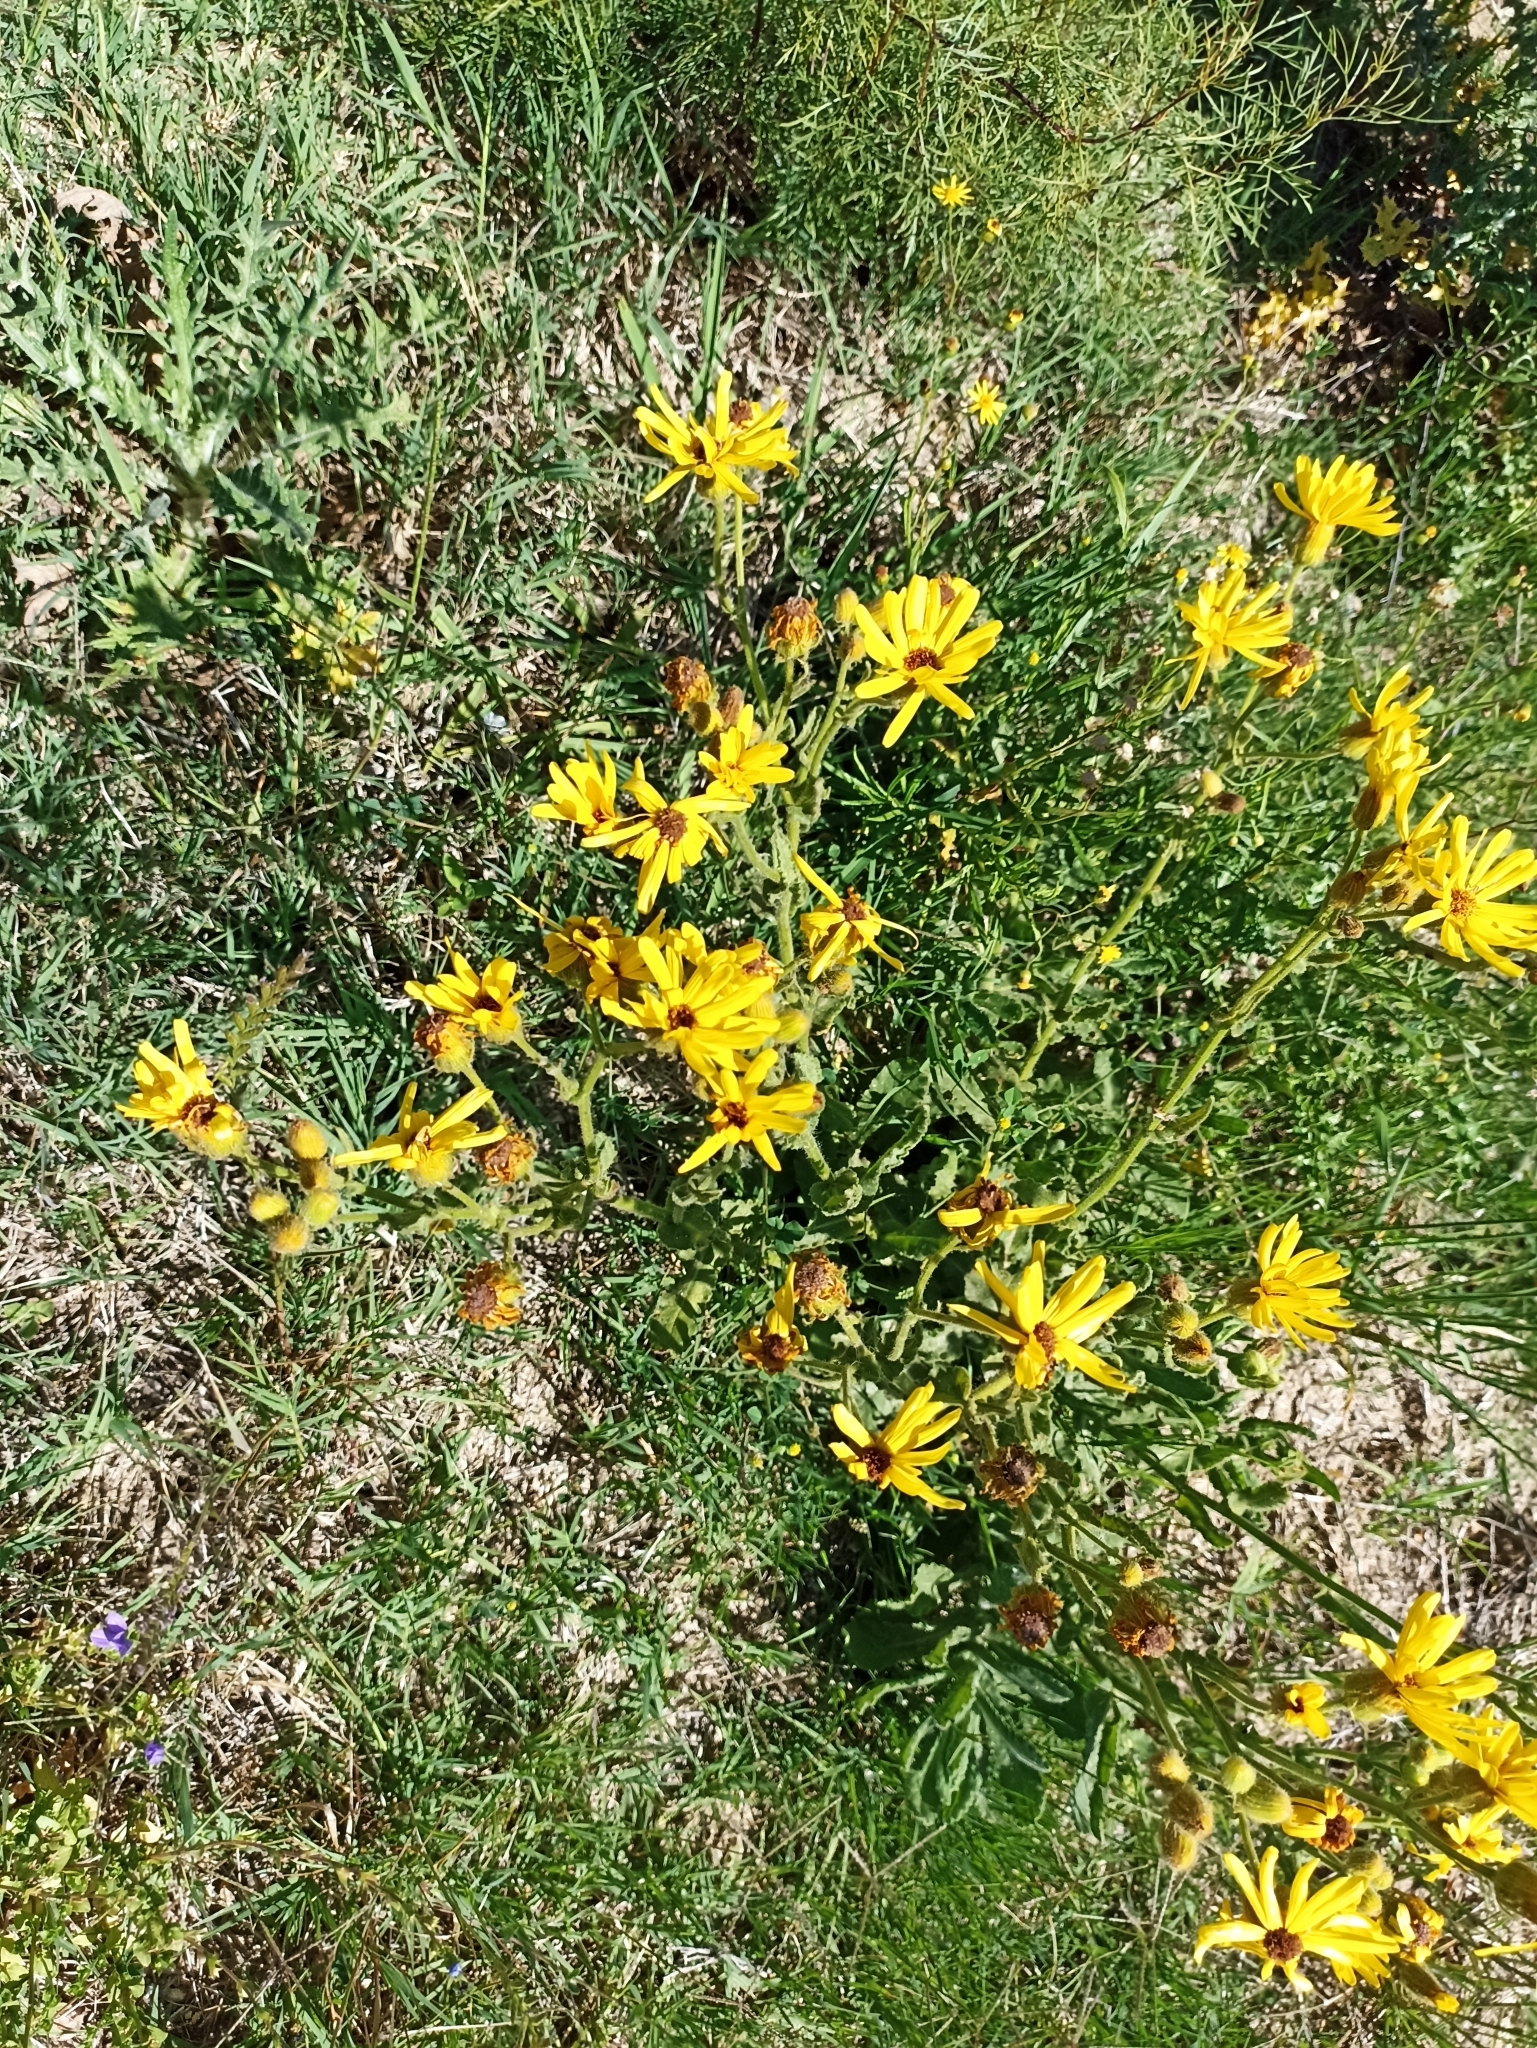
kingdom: Plantae
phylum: Tracheophyta
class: Magnoliopsida
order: Asterales
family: Asteraceae
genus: Senecio
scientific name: Senecio selloi
